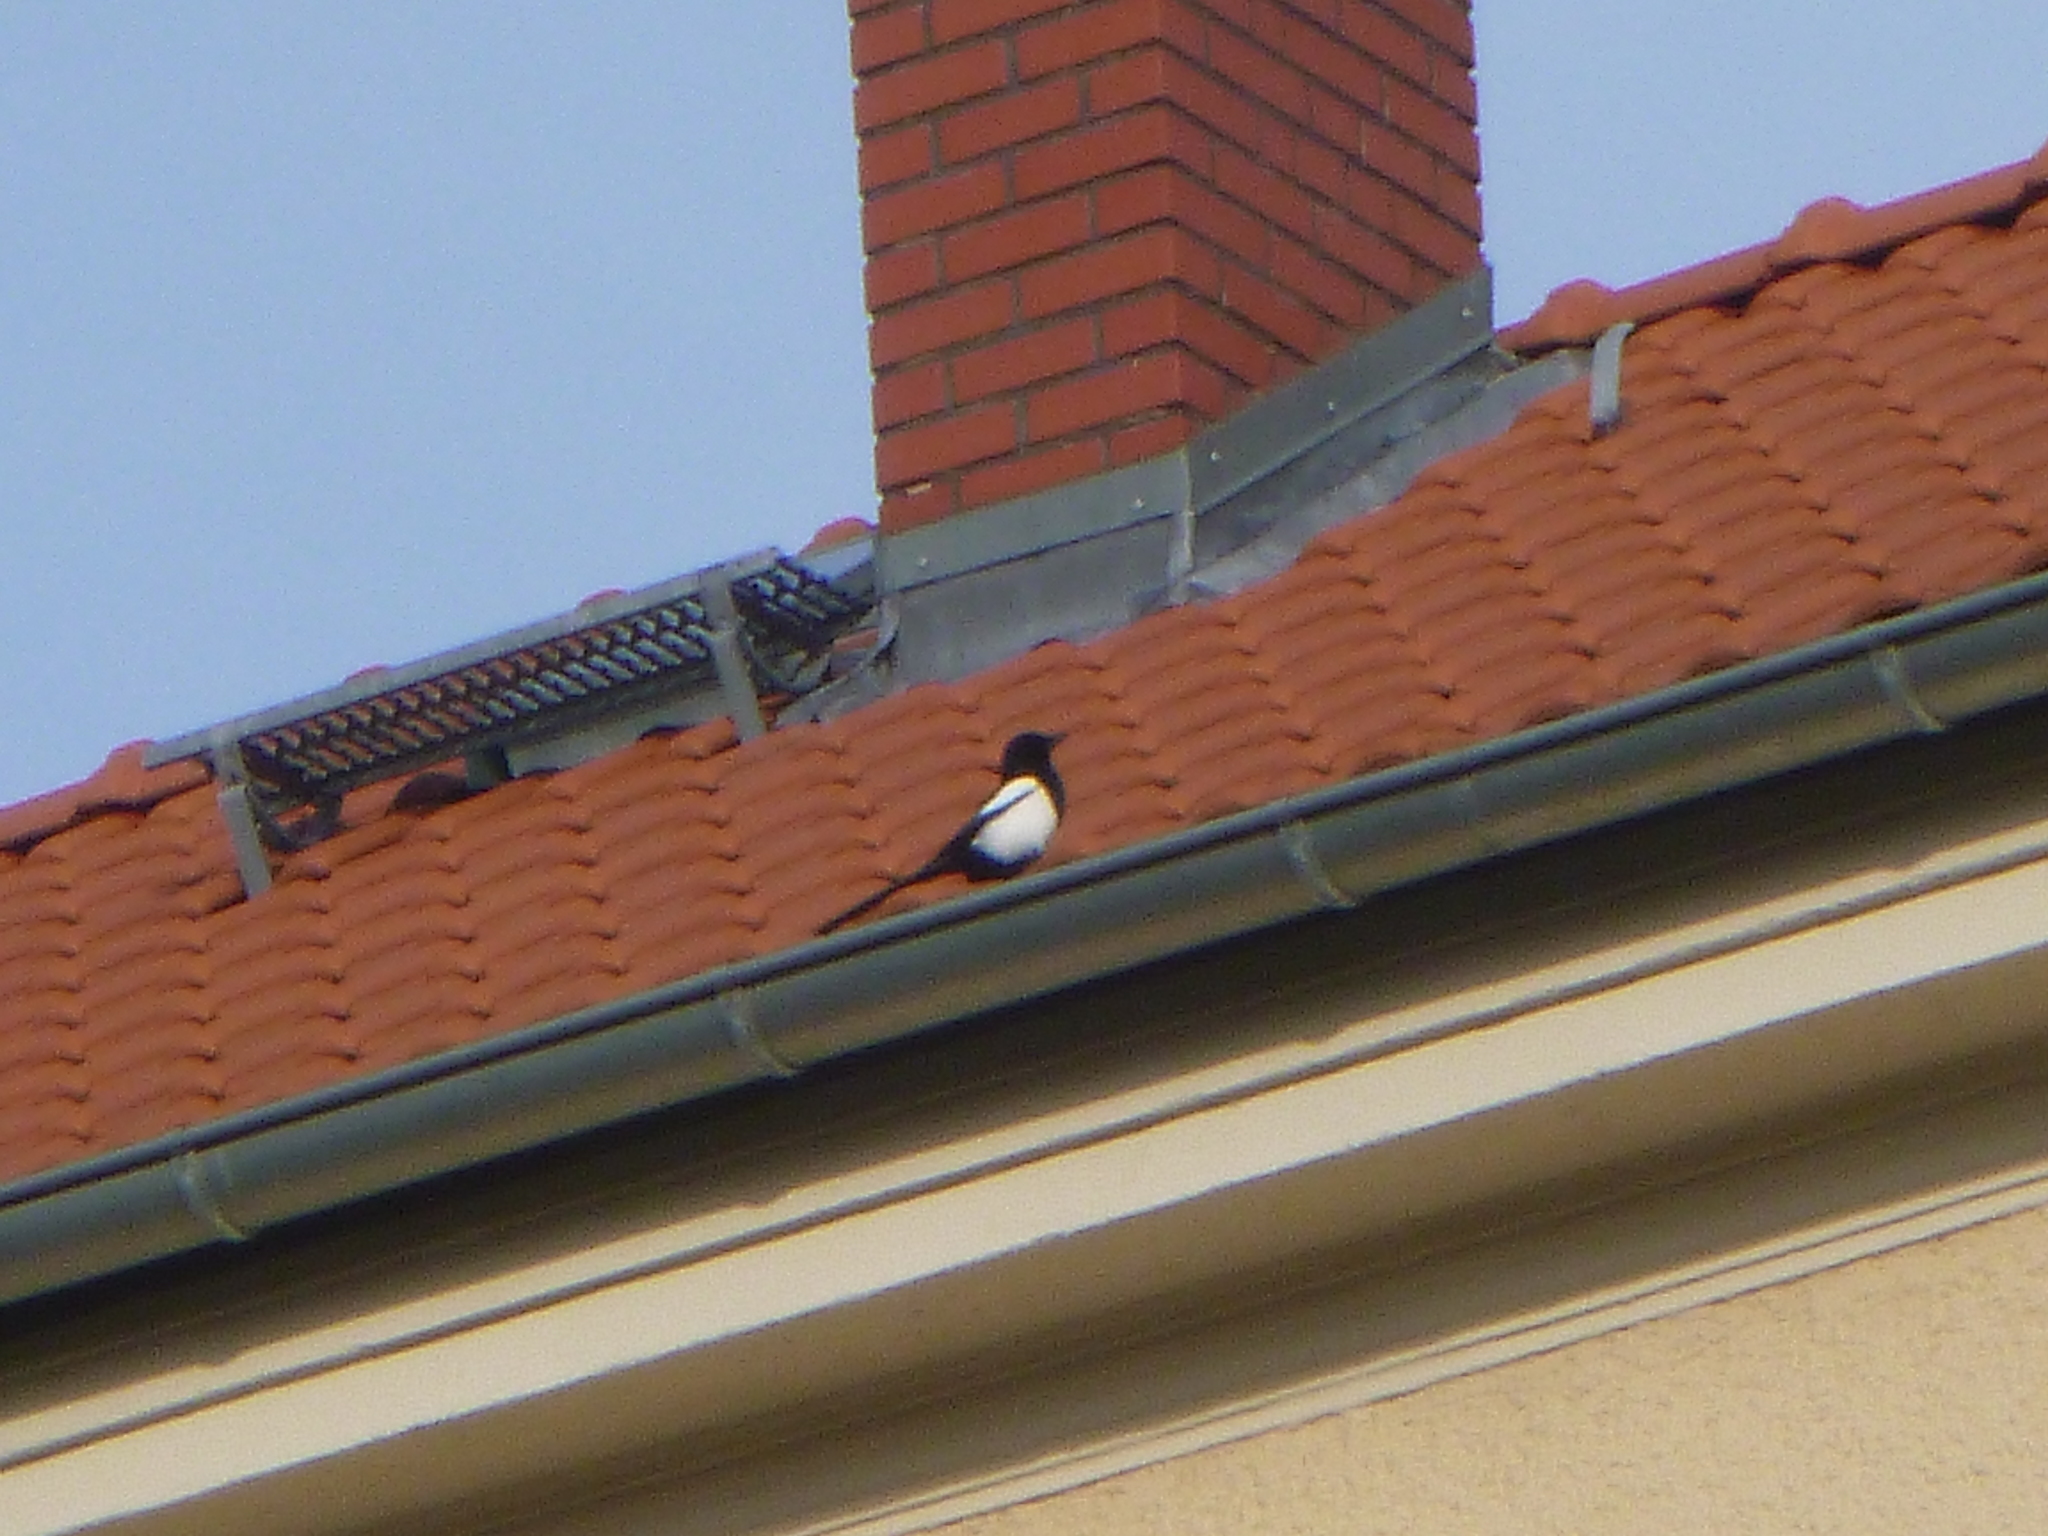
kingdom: Animalia
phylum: Chordata
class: Aves
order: Passeriformes
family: Corvidae
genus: Pica
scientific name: Pica pica
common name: Eurasian magpie
